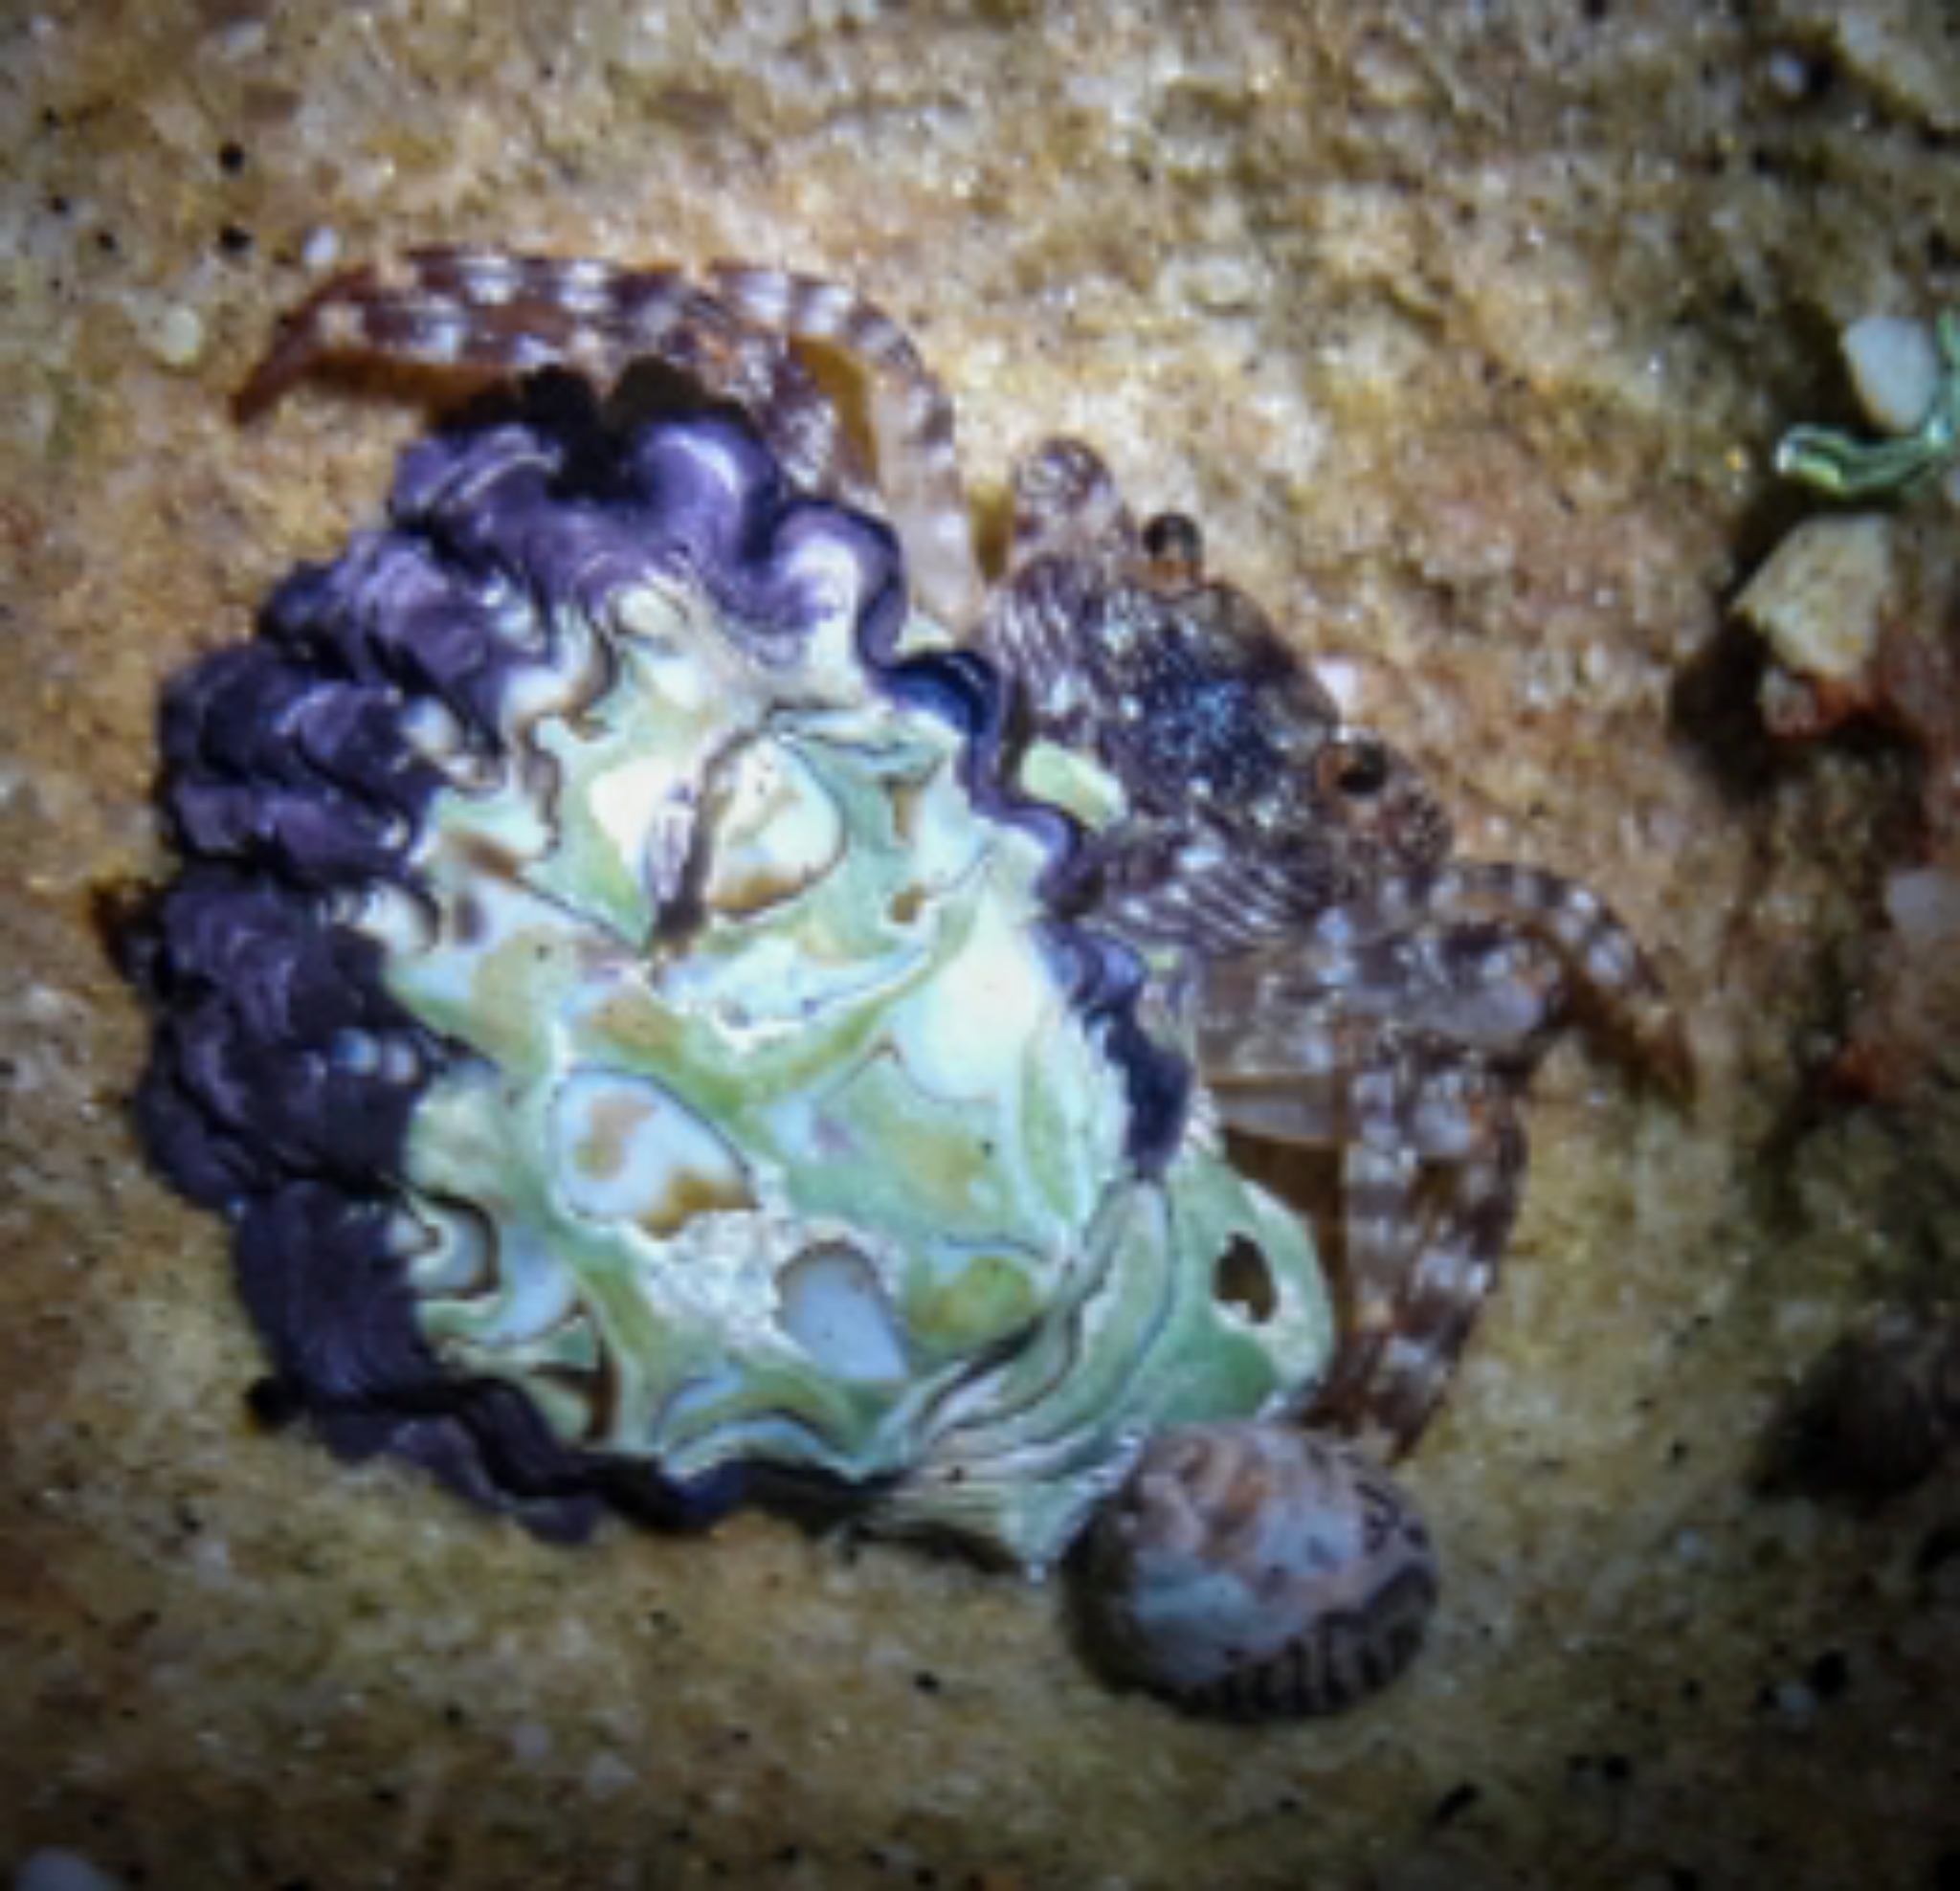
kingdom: Animalia
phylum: Mollusca
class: Bivalvia
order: Ostreida
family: Ostreidae
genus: Saccostrea
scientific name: Saccostrea glomerata
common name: Sydney cupped oyster
